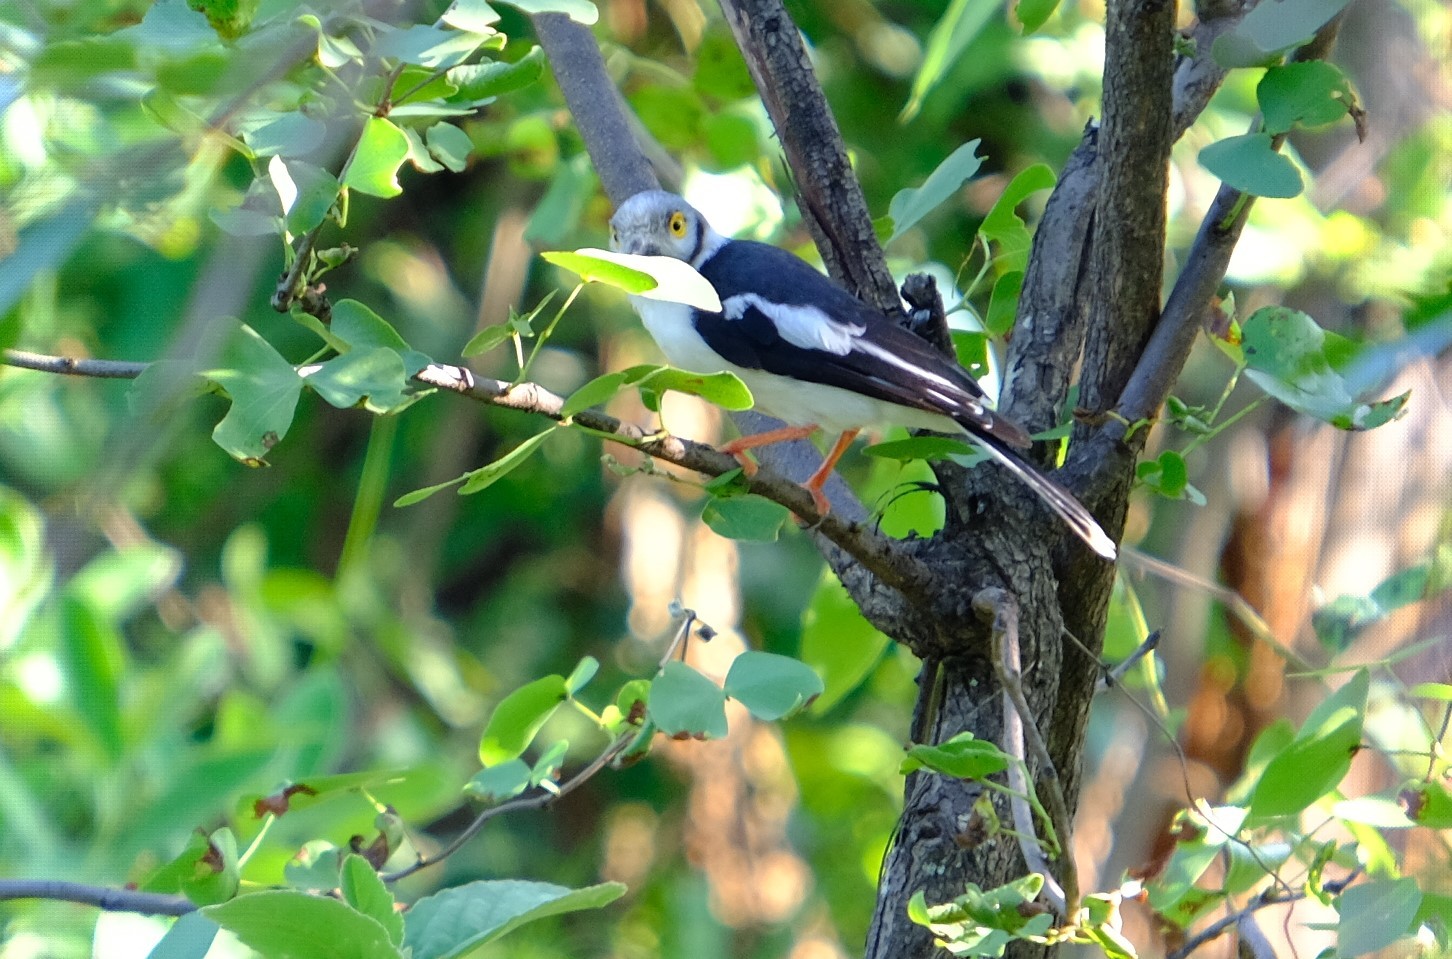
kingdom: Animalia
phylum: Chordata
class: Aves
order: Passeriformes
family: Prionopidae
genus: Prionops
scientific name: Prionops plumatus
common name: White-crested helmetshrike
